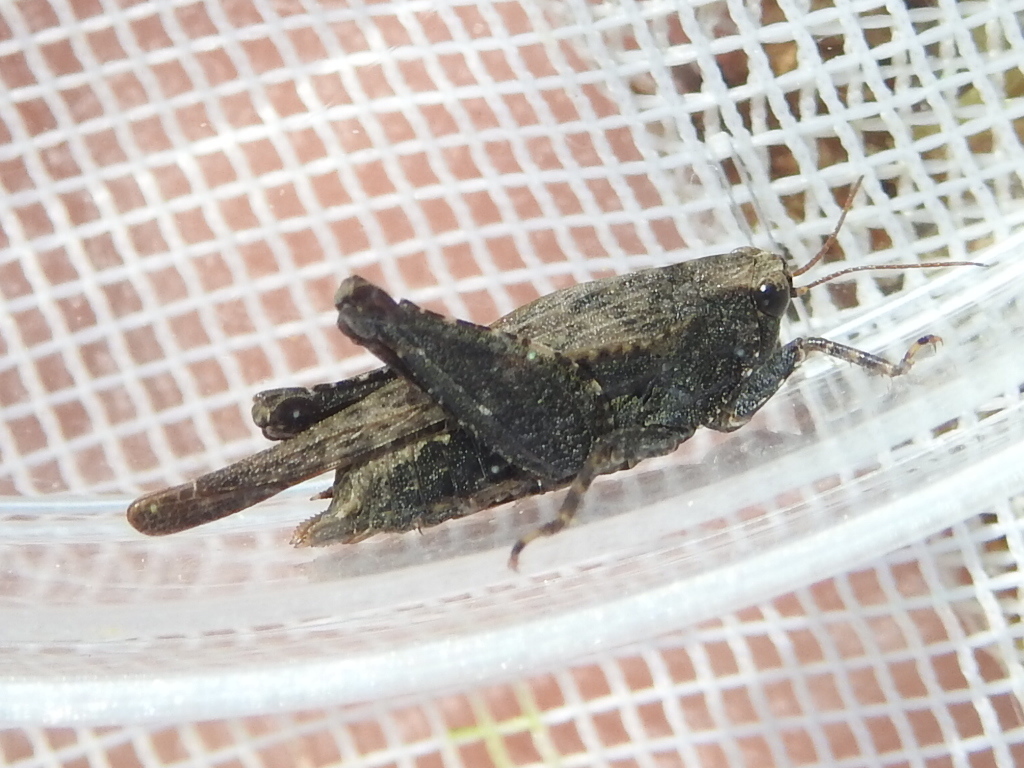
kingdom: Animalia
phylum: Arthropoda
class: Insecta
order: Orthoptera
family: Tetrigidae
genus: Tettigidea
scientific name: Tettigidea laterale
